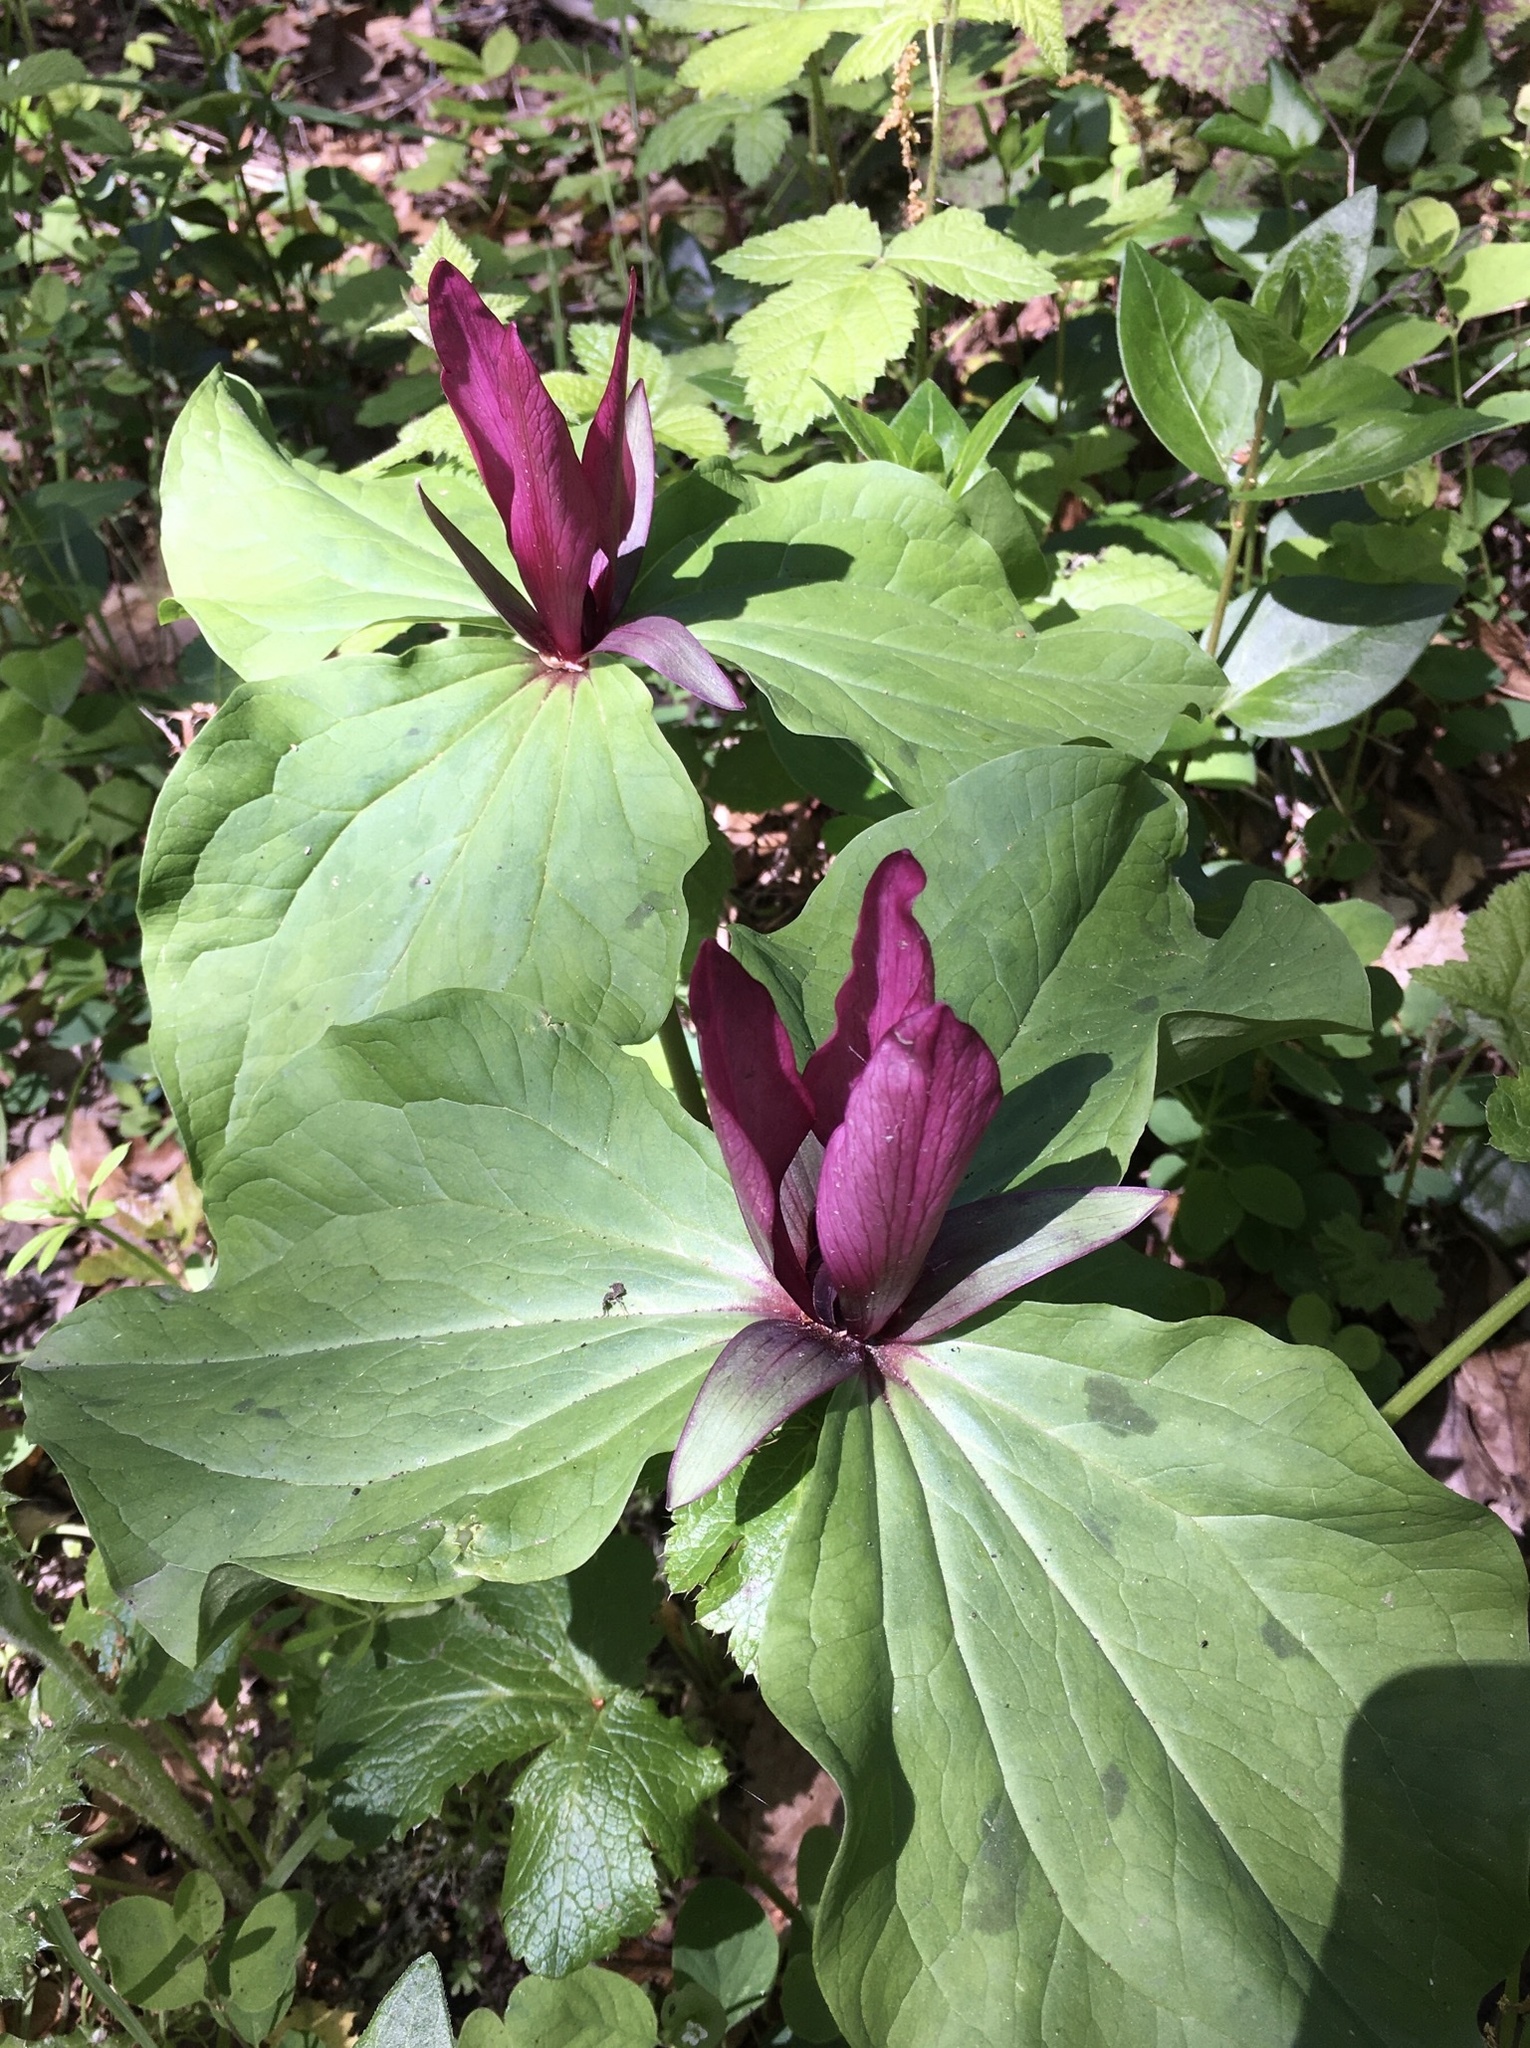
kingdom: Plantae
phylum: Tracheophyta
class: Liliopsida
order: Liliales
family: Melanthiaceae
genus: Trillium
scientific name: Trillium chloropetalum
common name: Giant trillium
